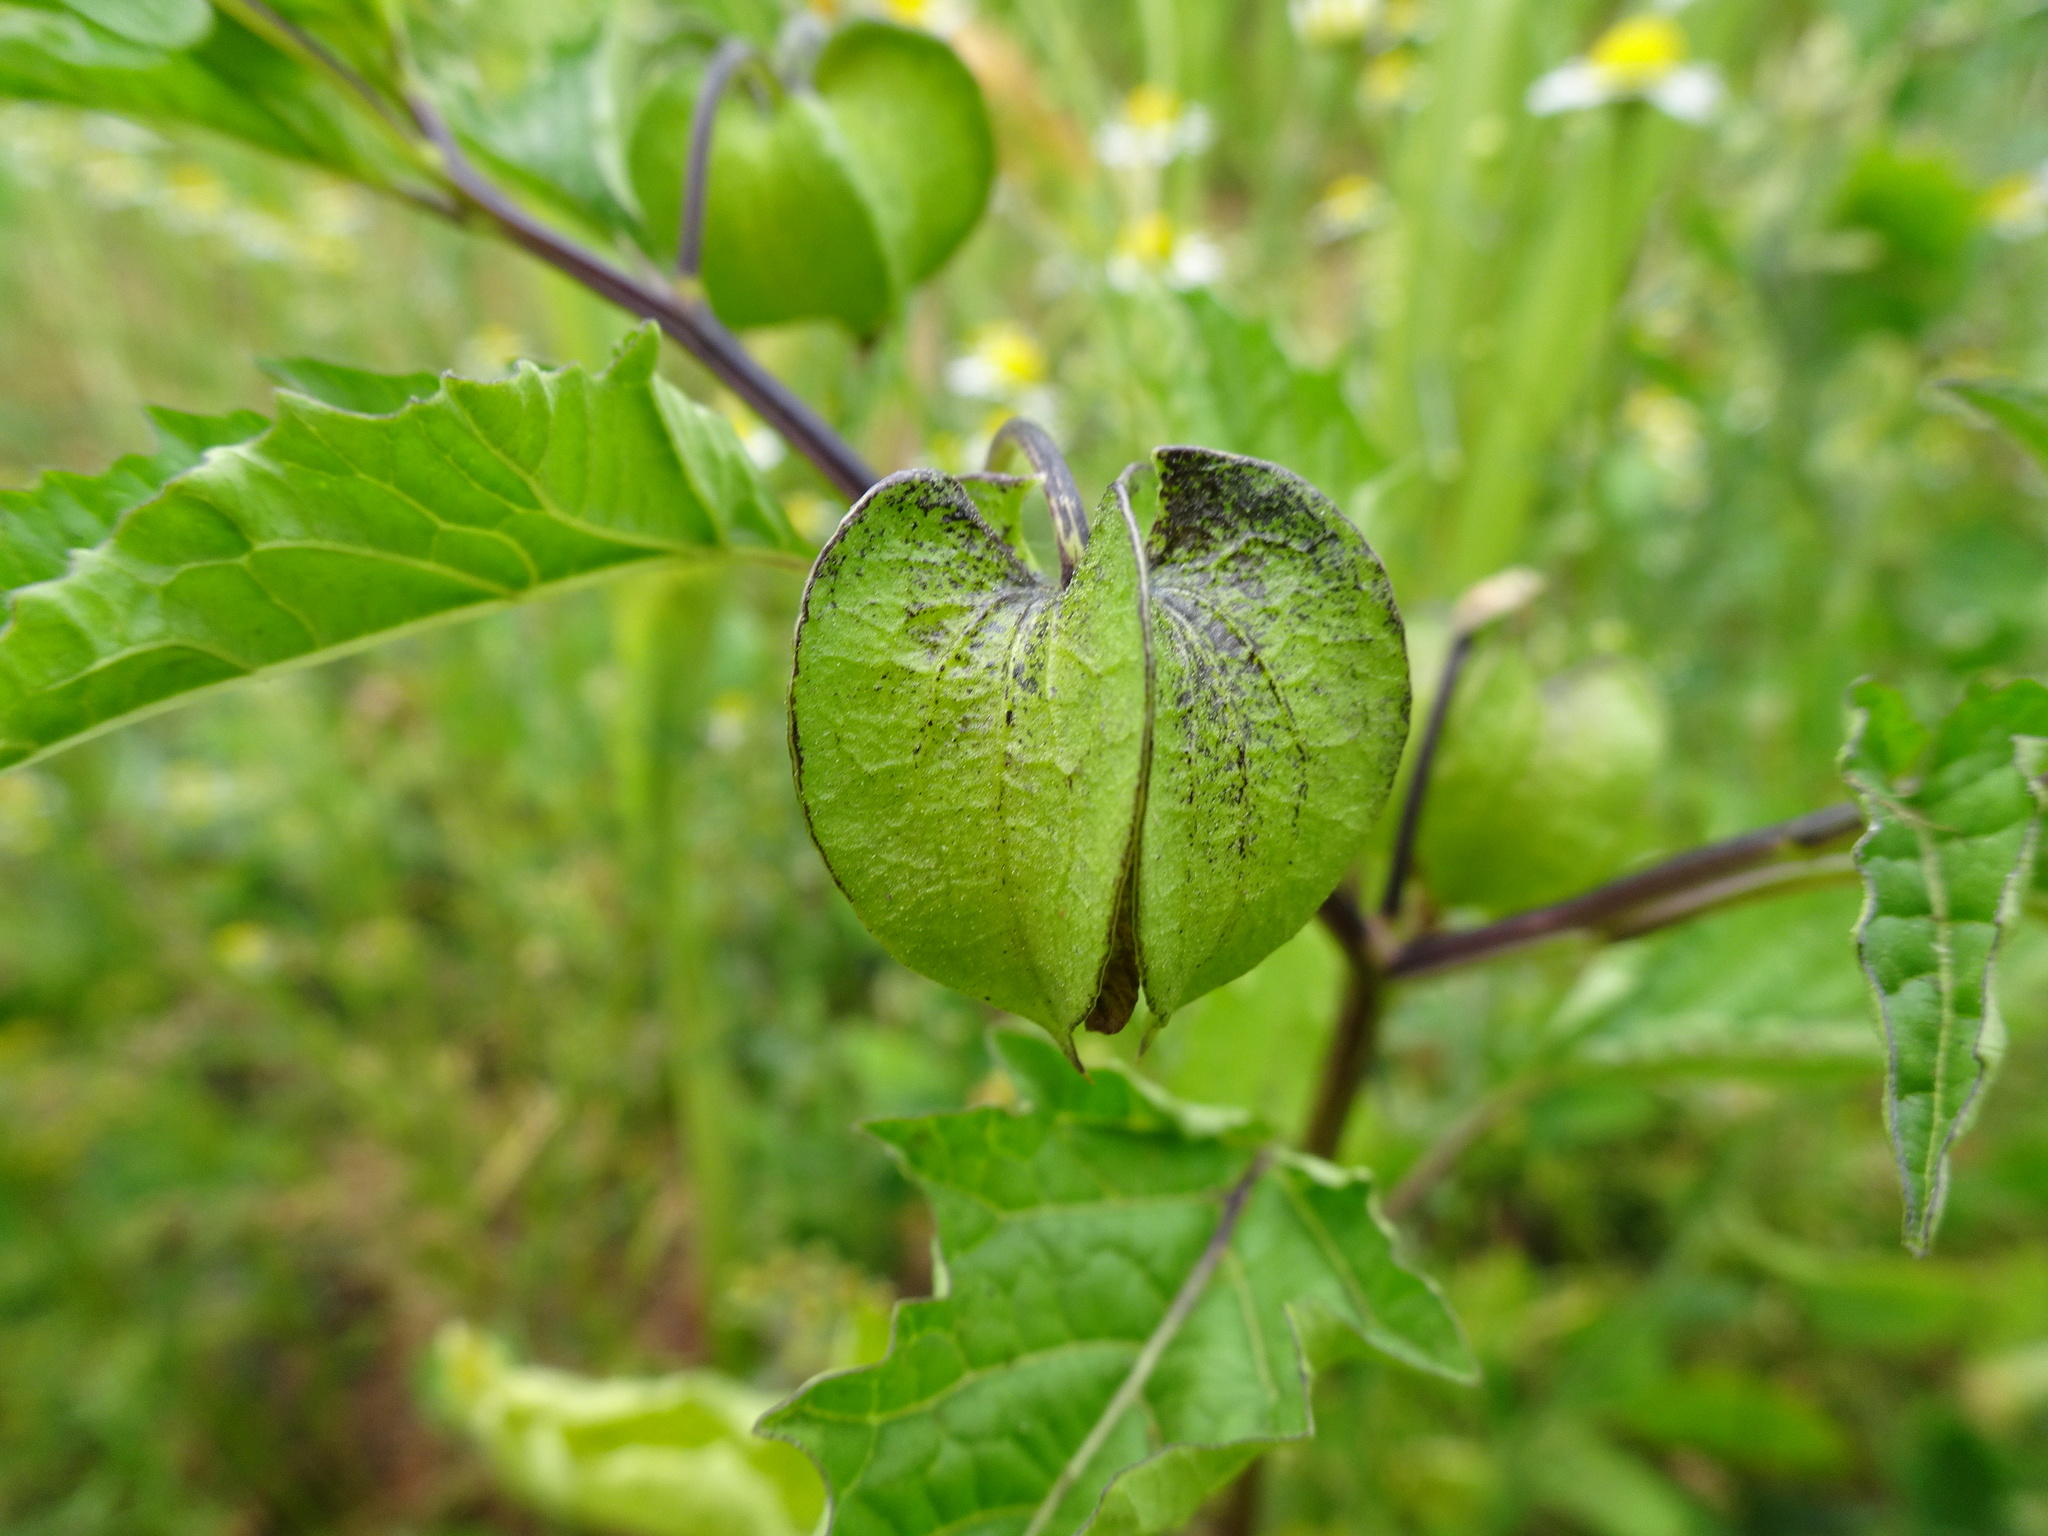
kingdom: Plantae
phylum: Tracheophyta
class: Magnoliopsida
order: Solanales
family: Solanaceae
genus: Nicandra
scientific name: Nicandra physalodes
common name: Apple-of-peru
